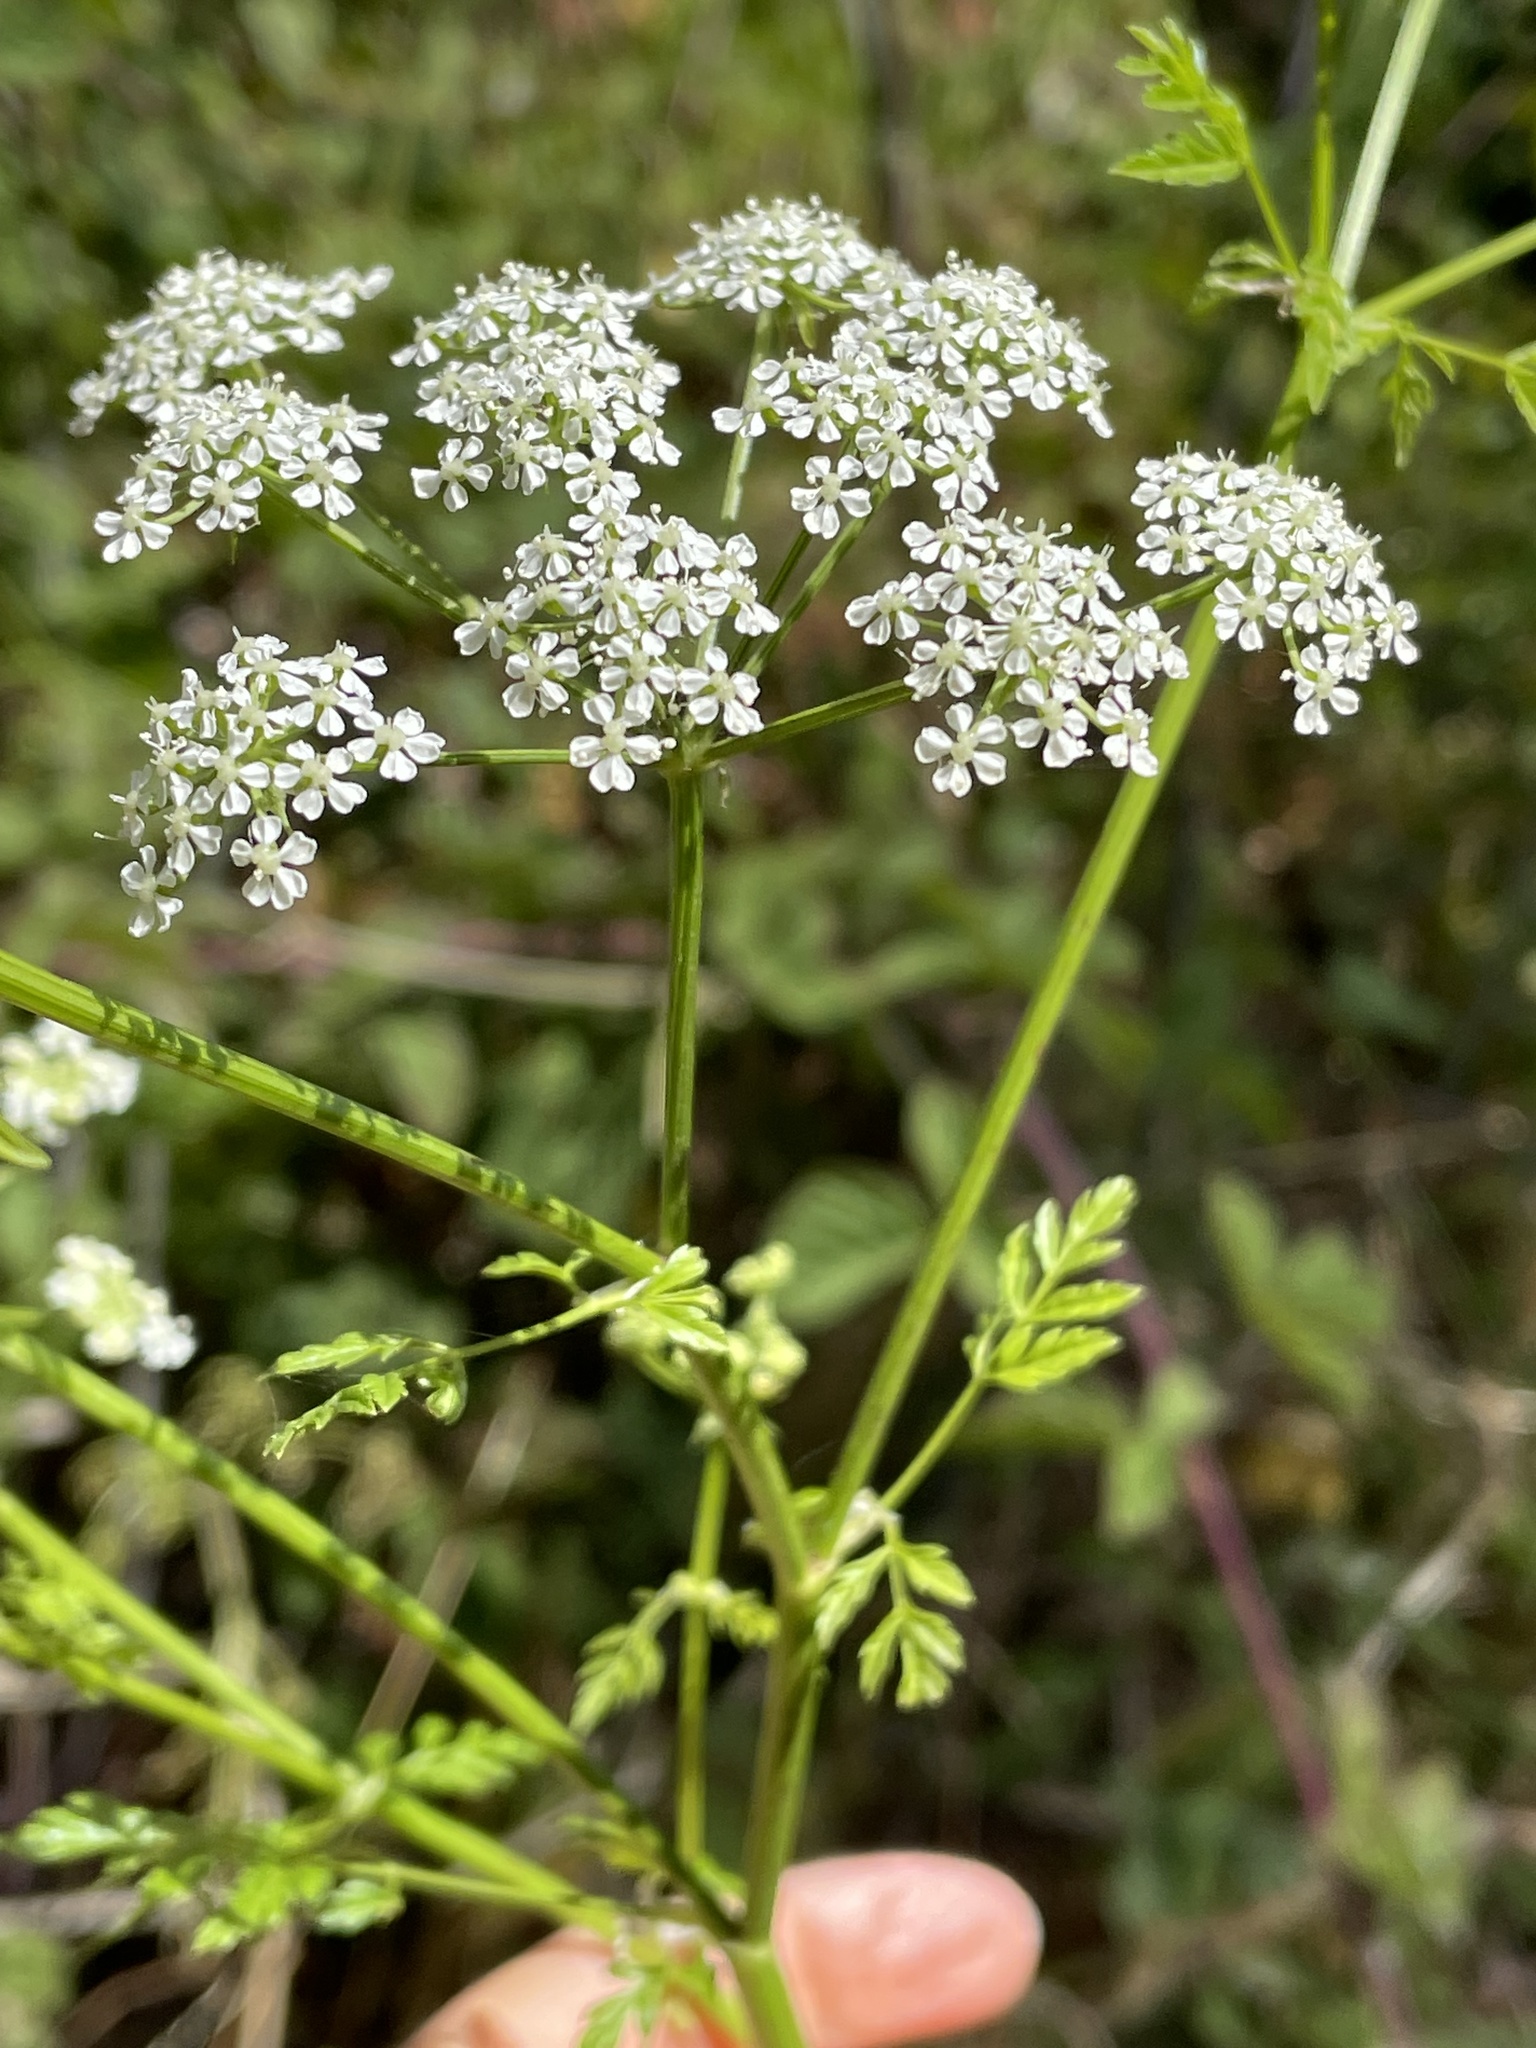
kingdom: Plantae
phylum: Tracheophyta
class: Magnoliopsida
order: Apiales
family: Apiaceae
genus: Conium
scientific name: Conium maculatum
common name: Hemlock
